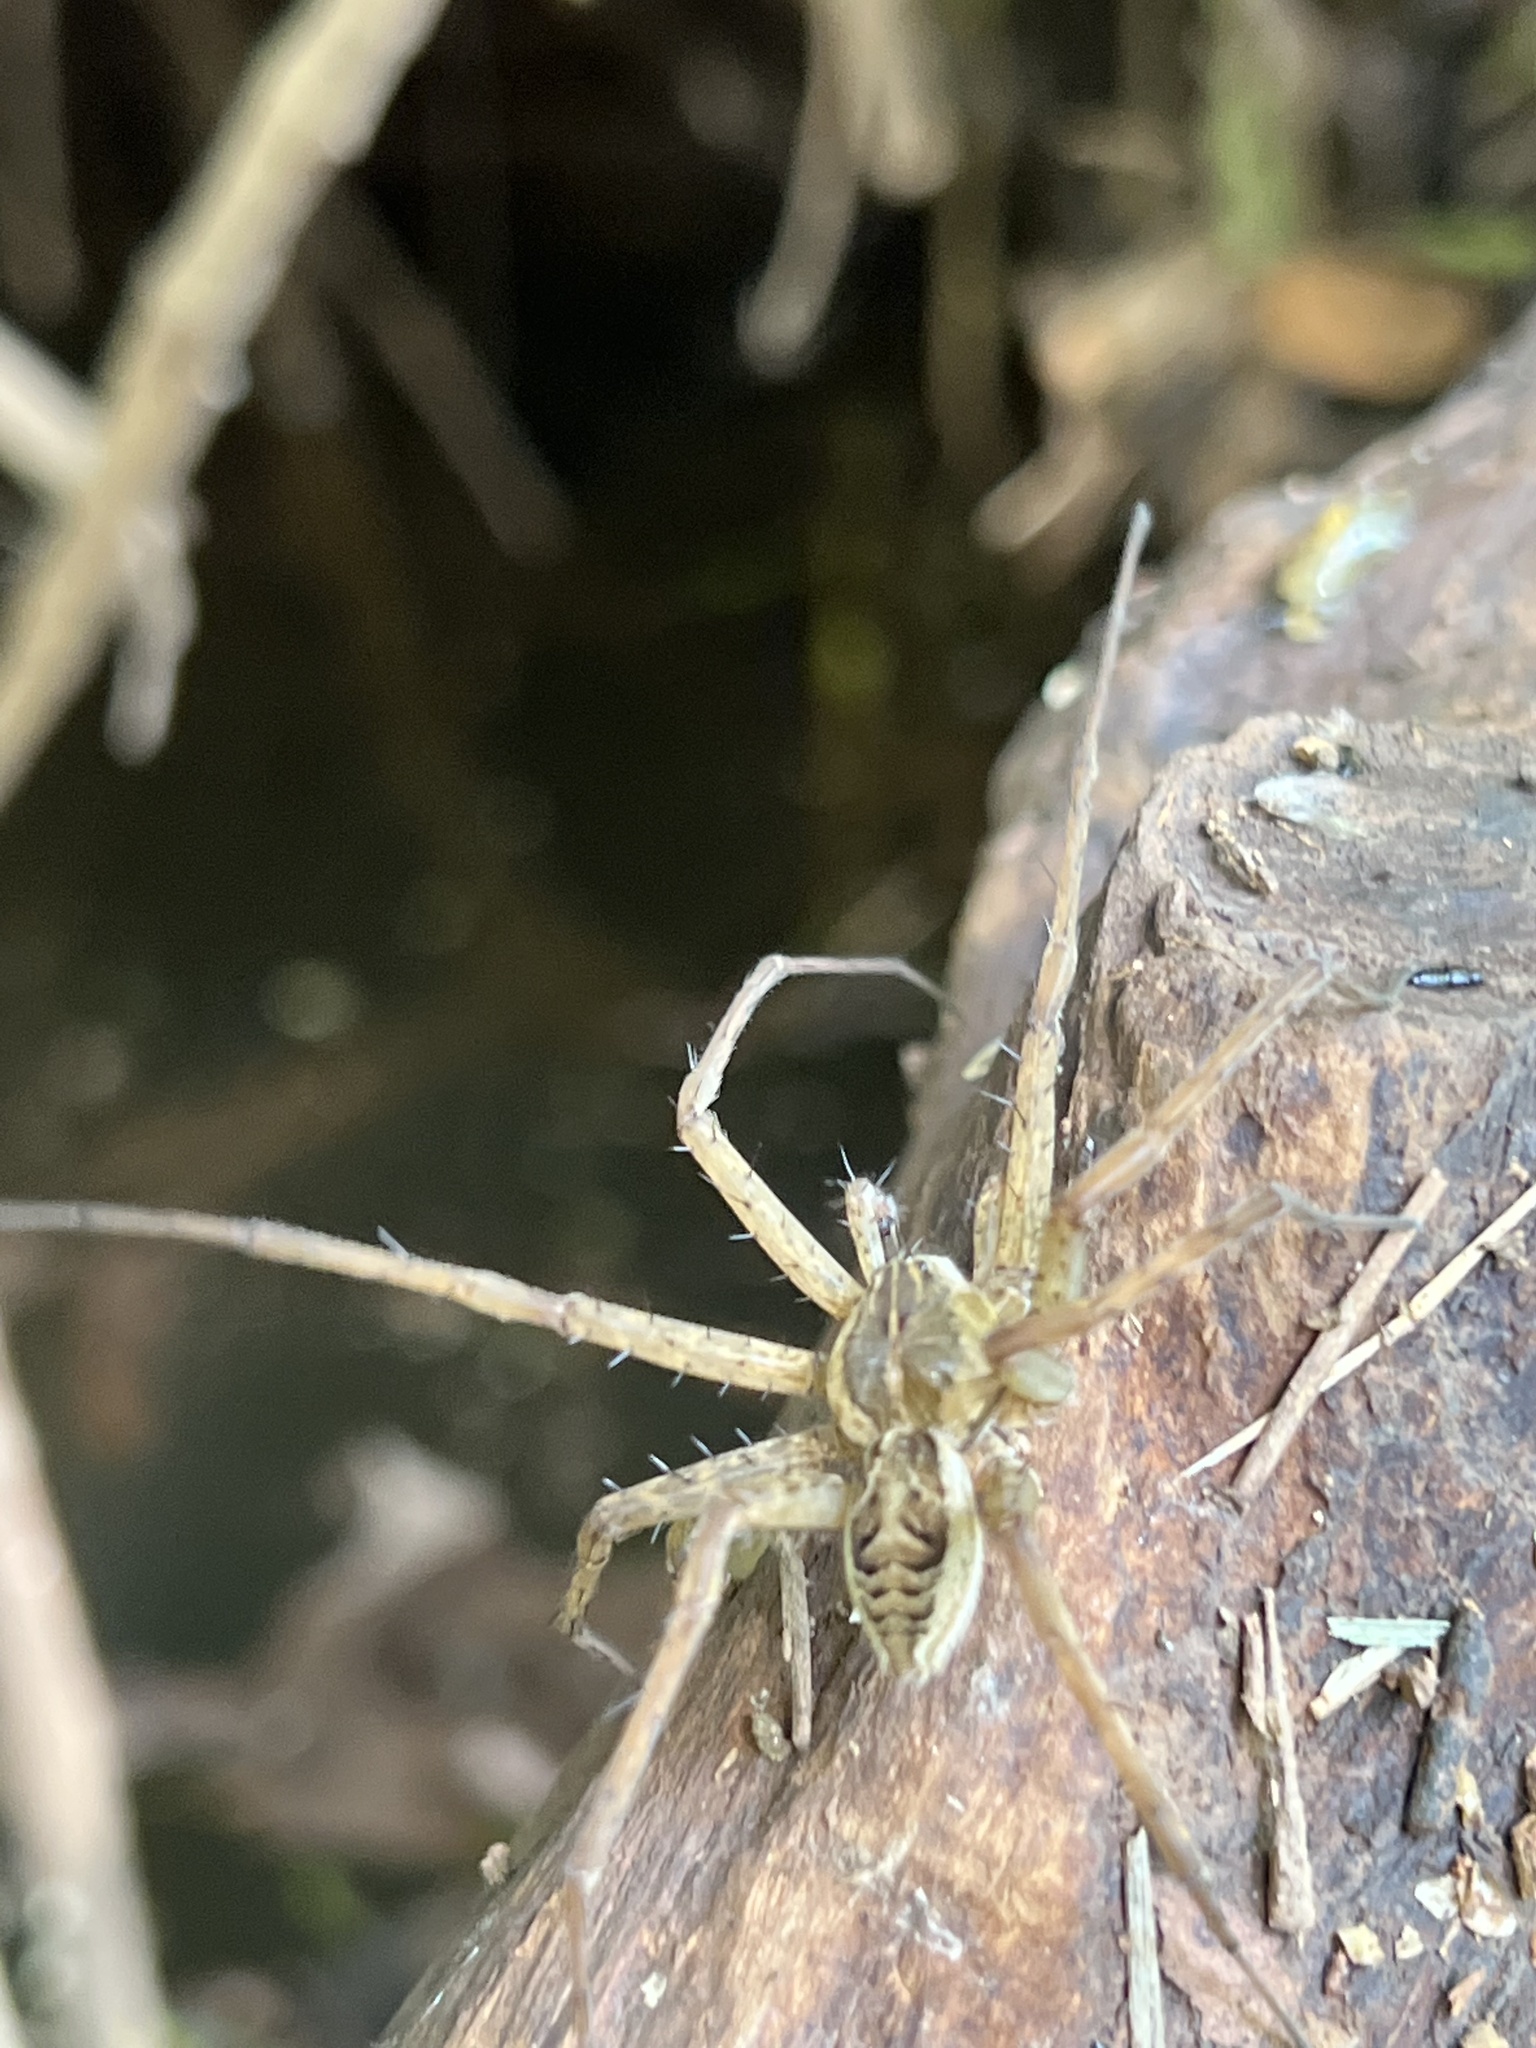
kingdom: Animalia
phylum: Arthropoda
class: Arachnida
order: Araneae
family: Pisauridae
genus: Dolomedes
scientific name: Dolomedes scriptus
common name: Striped fishing spider
